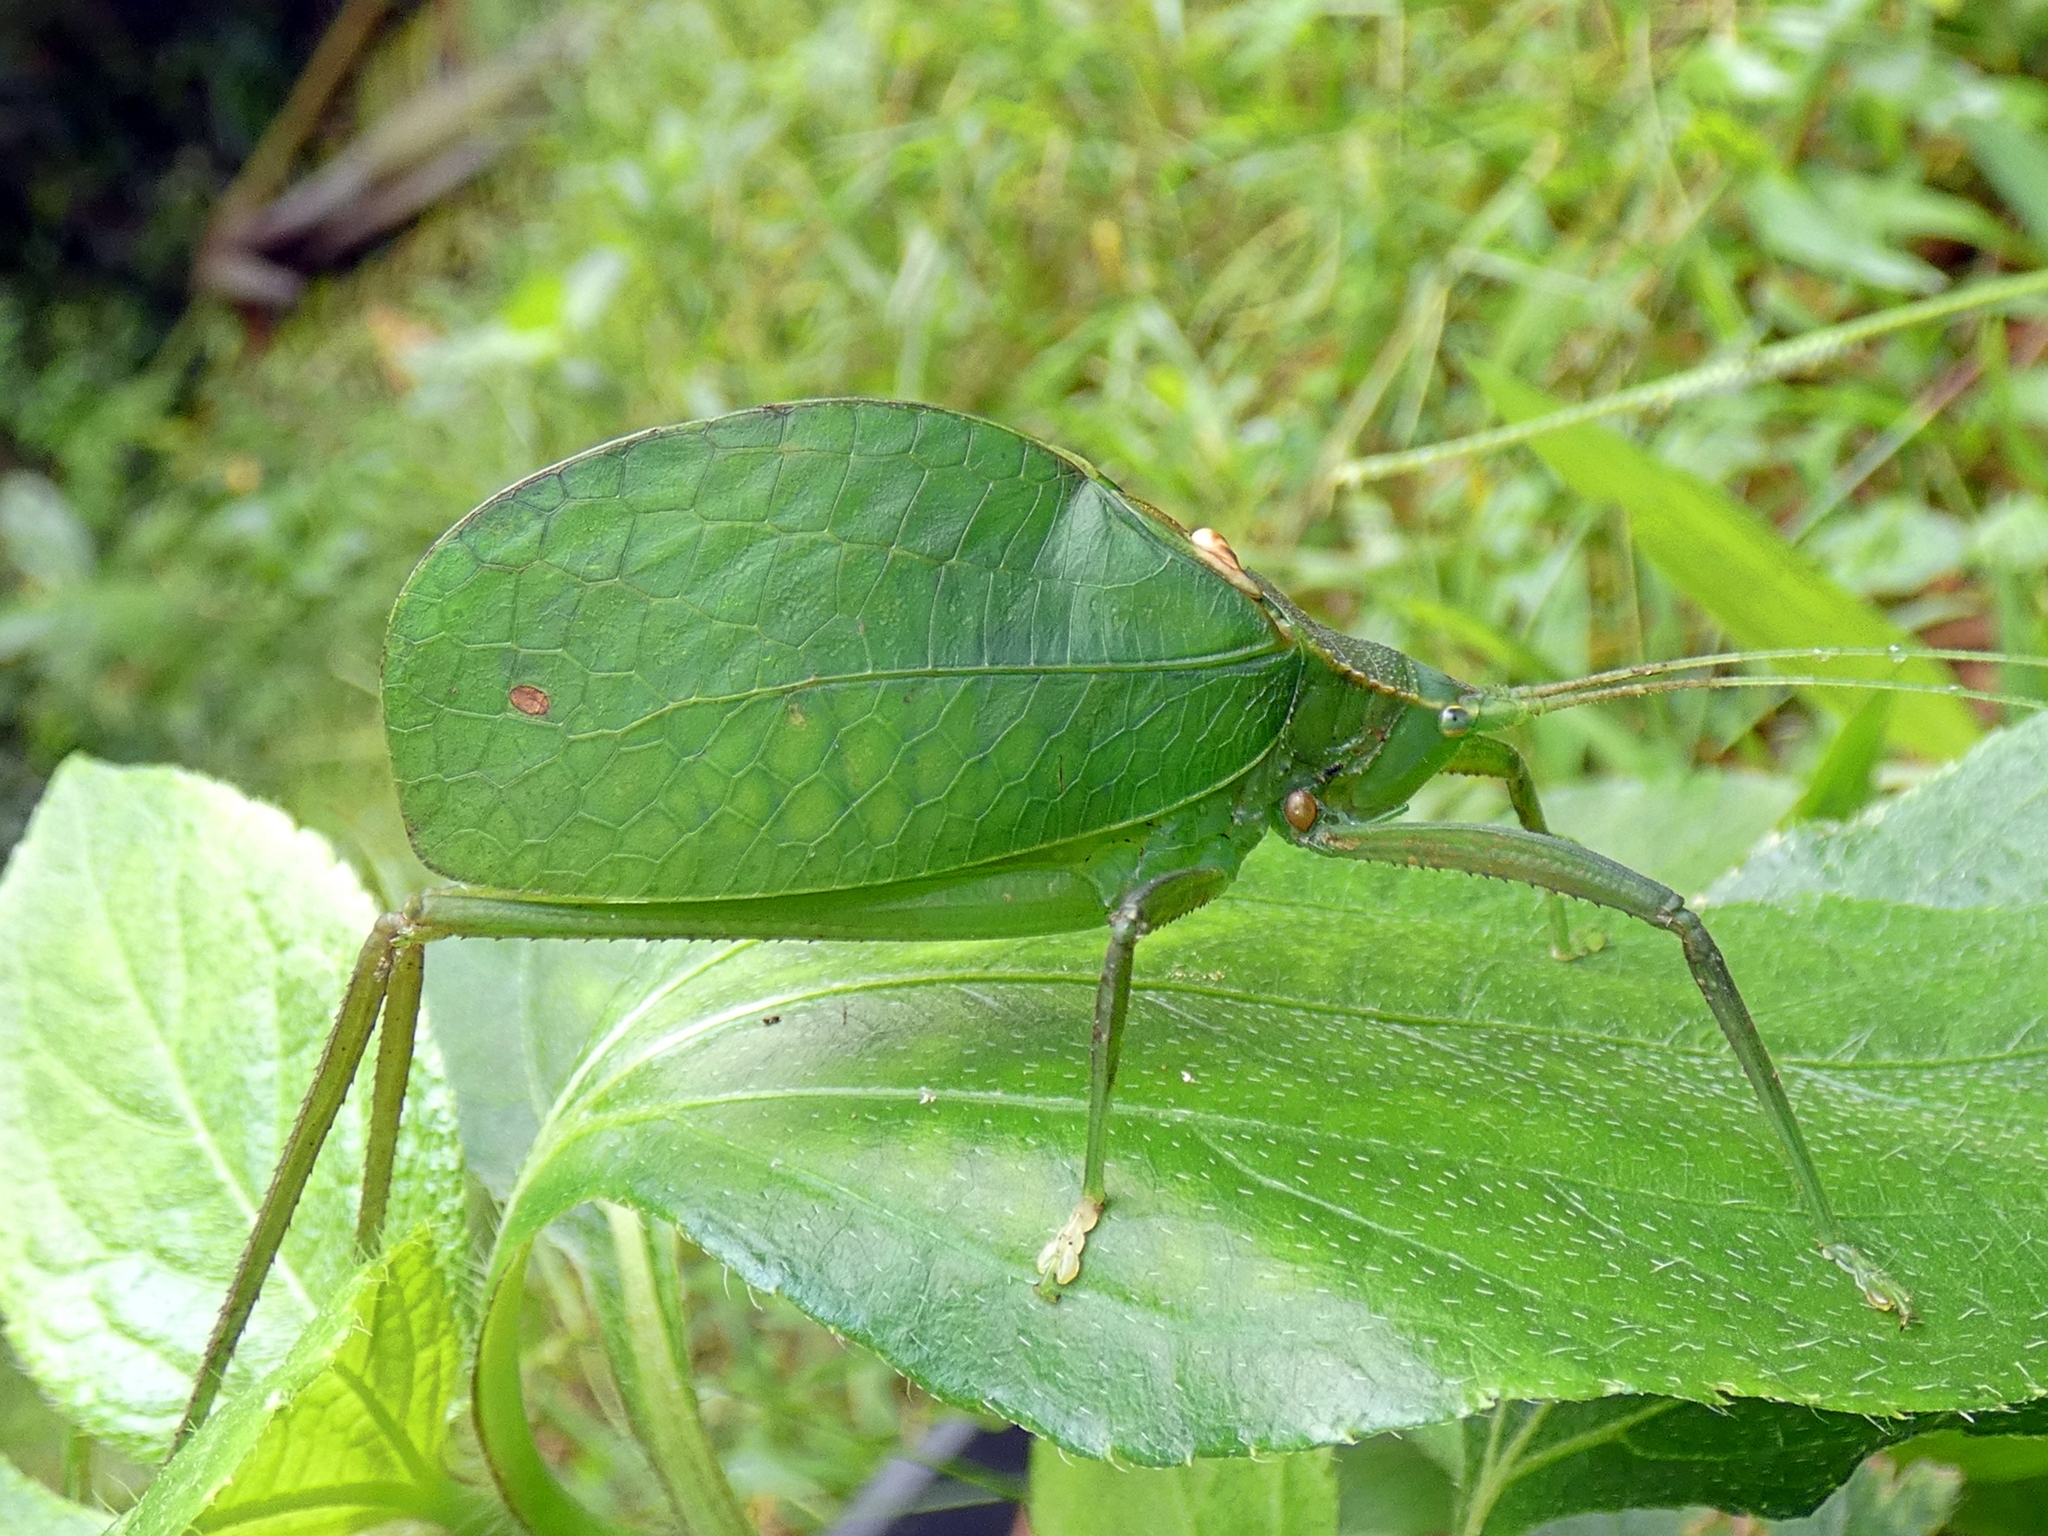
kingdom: Animalia
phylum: Arthropoda
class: Insecta
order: Orthoptera
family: Tettigoniidae
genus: Mastighaphoides
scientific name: Mastighaphoides tuberculatus
